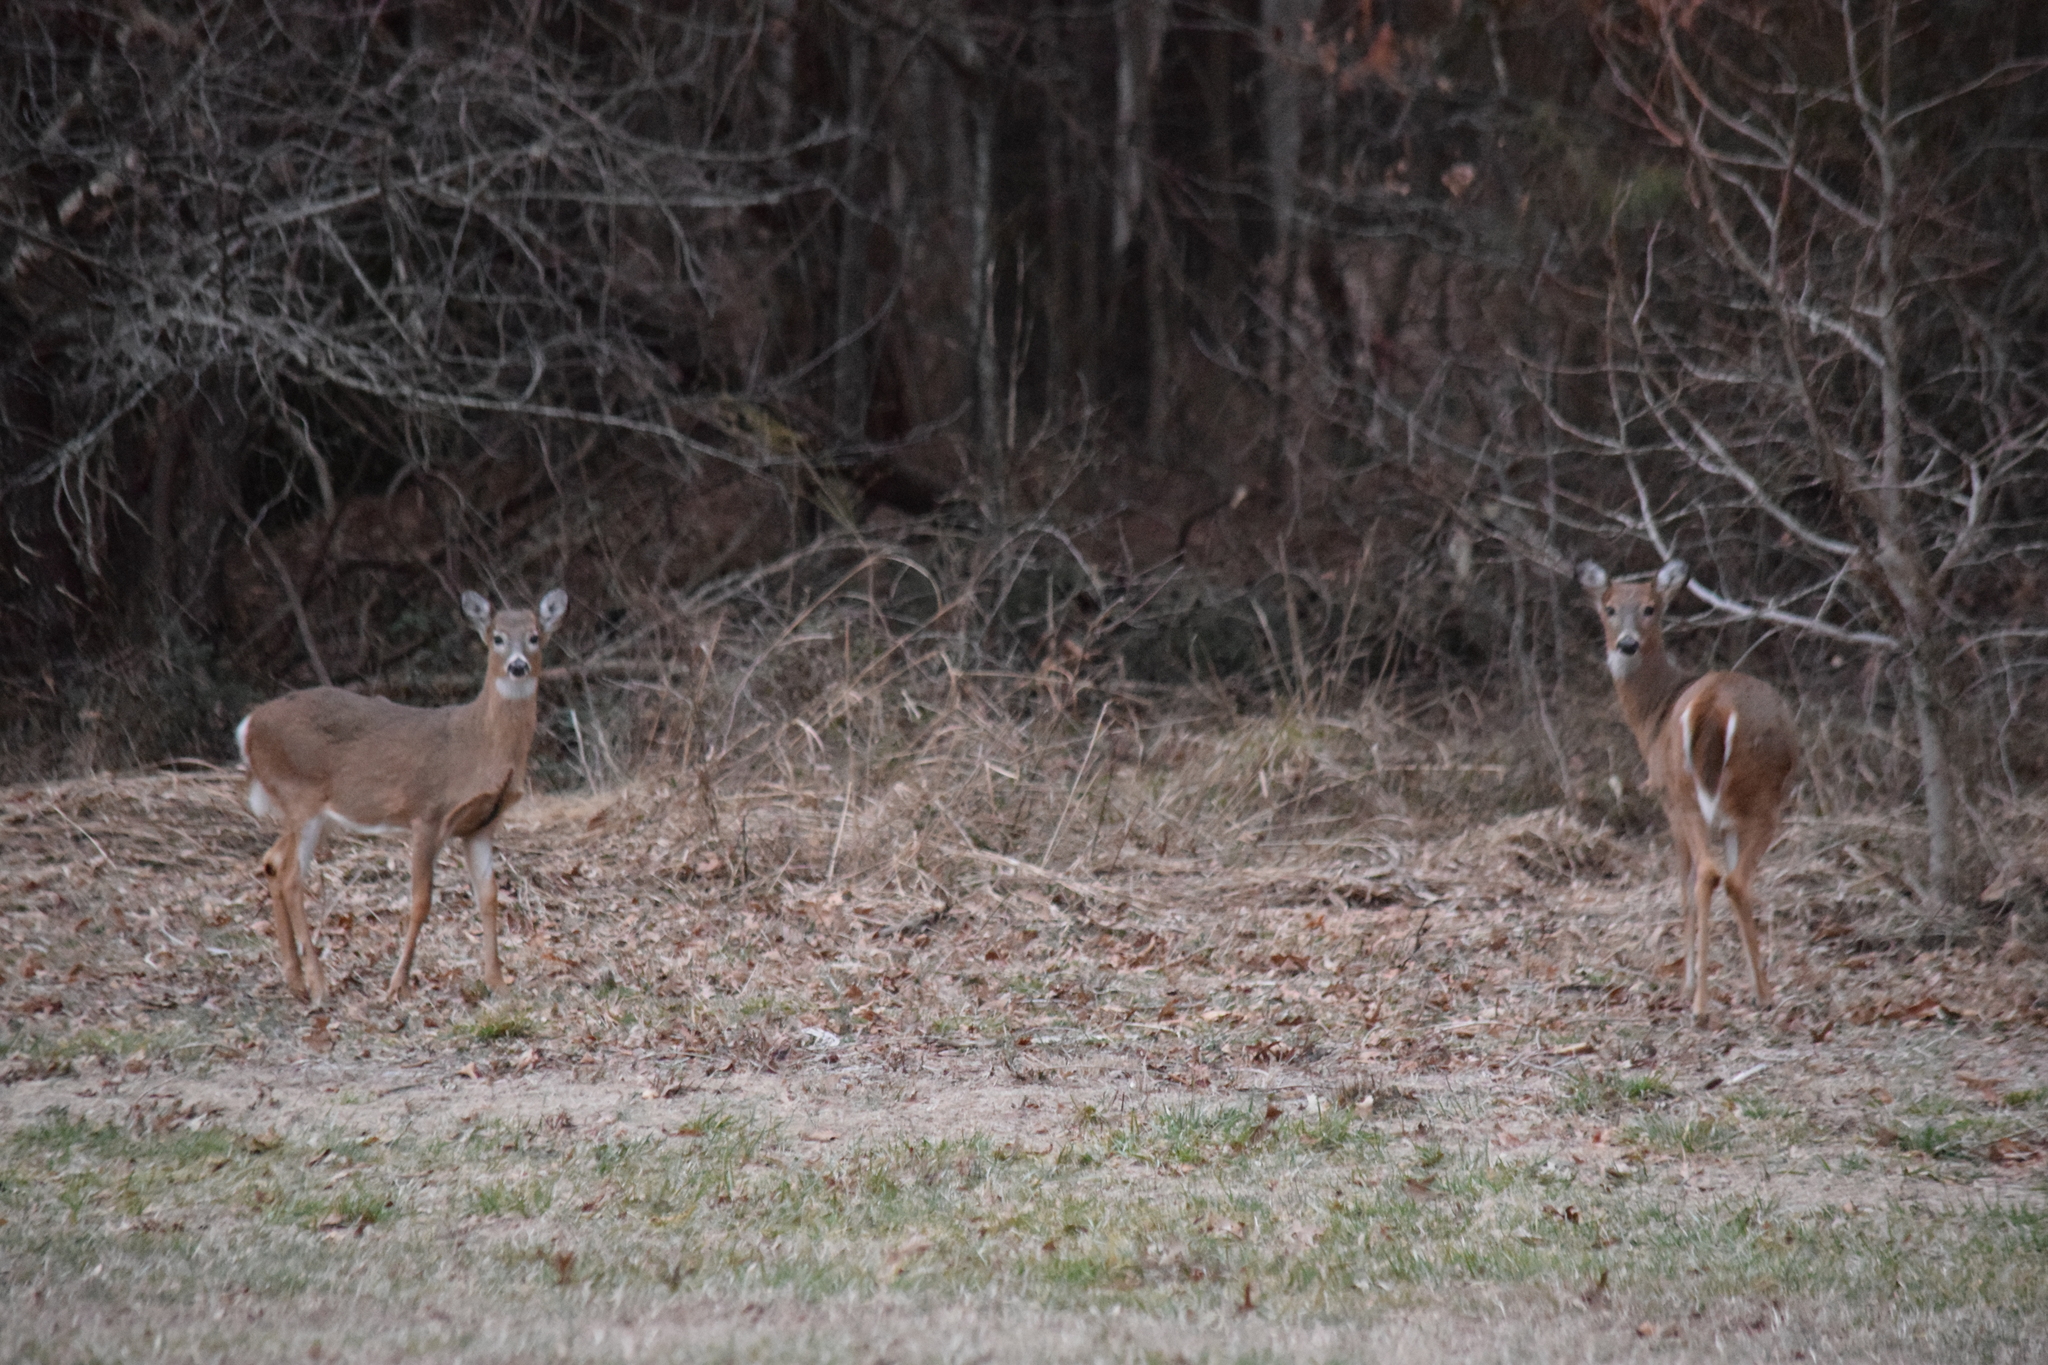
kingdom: Animalia
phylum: Chordata
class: Mammalia
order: Artiodactyla
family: Cervidae
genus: Odocoileus
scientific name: Odocoileus virginianus
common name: White-tailed deer
